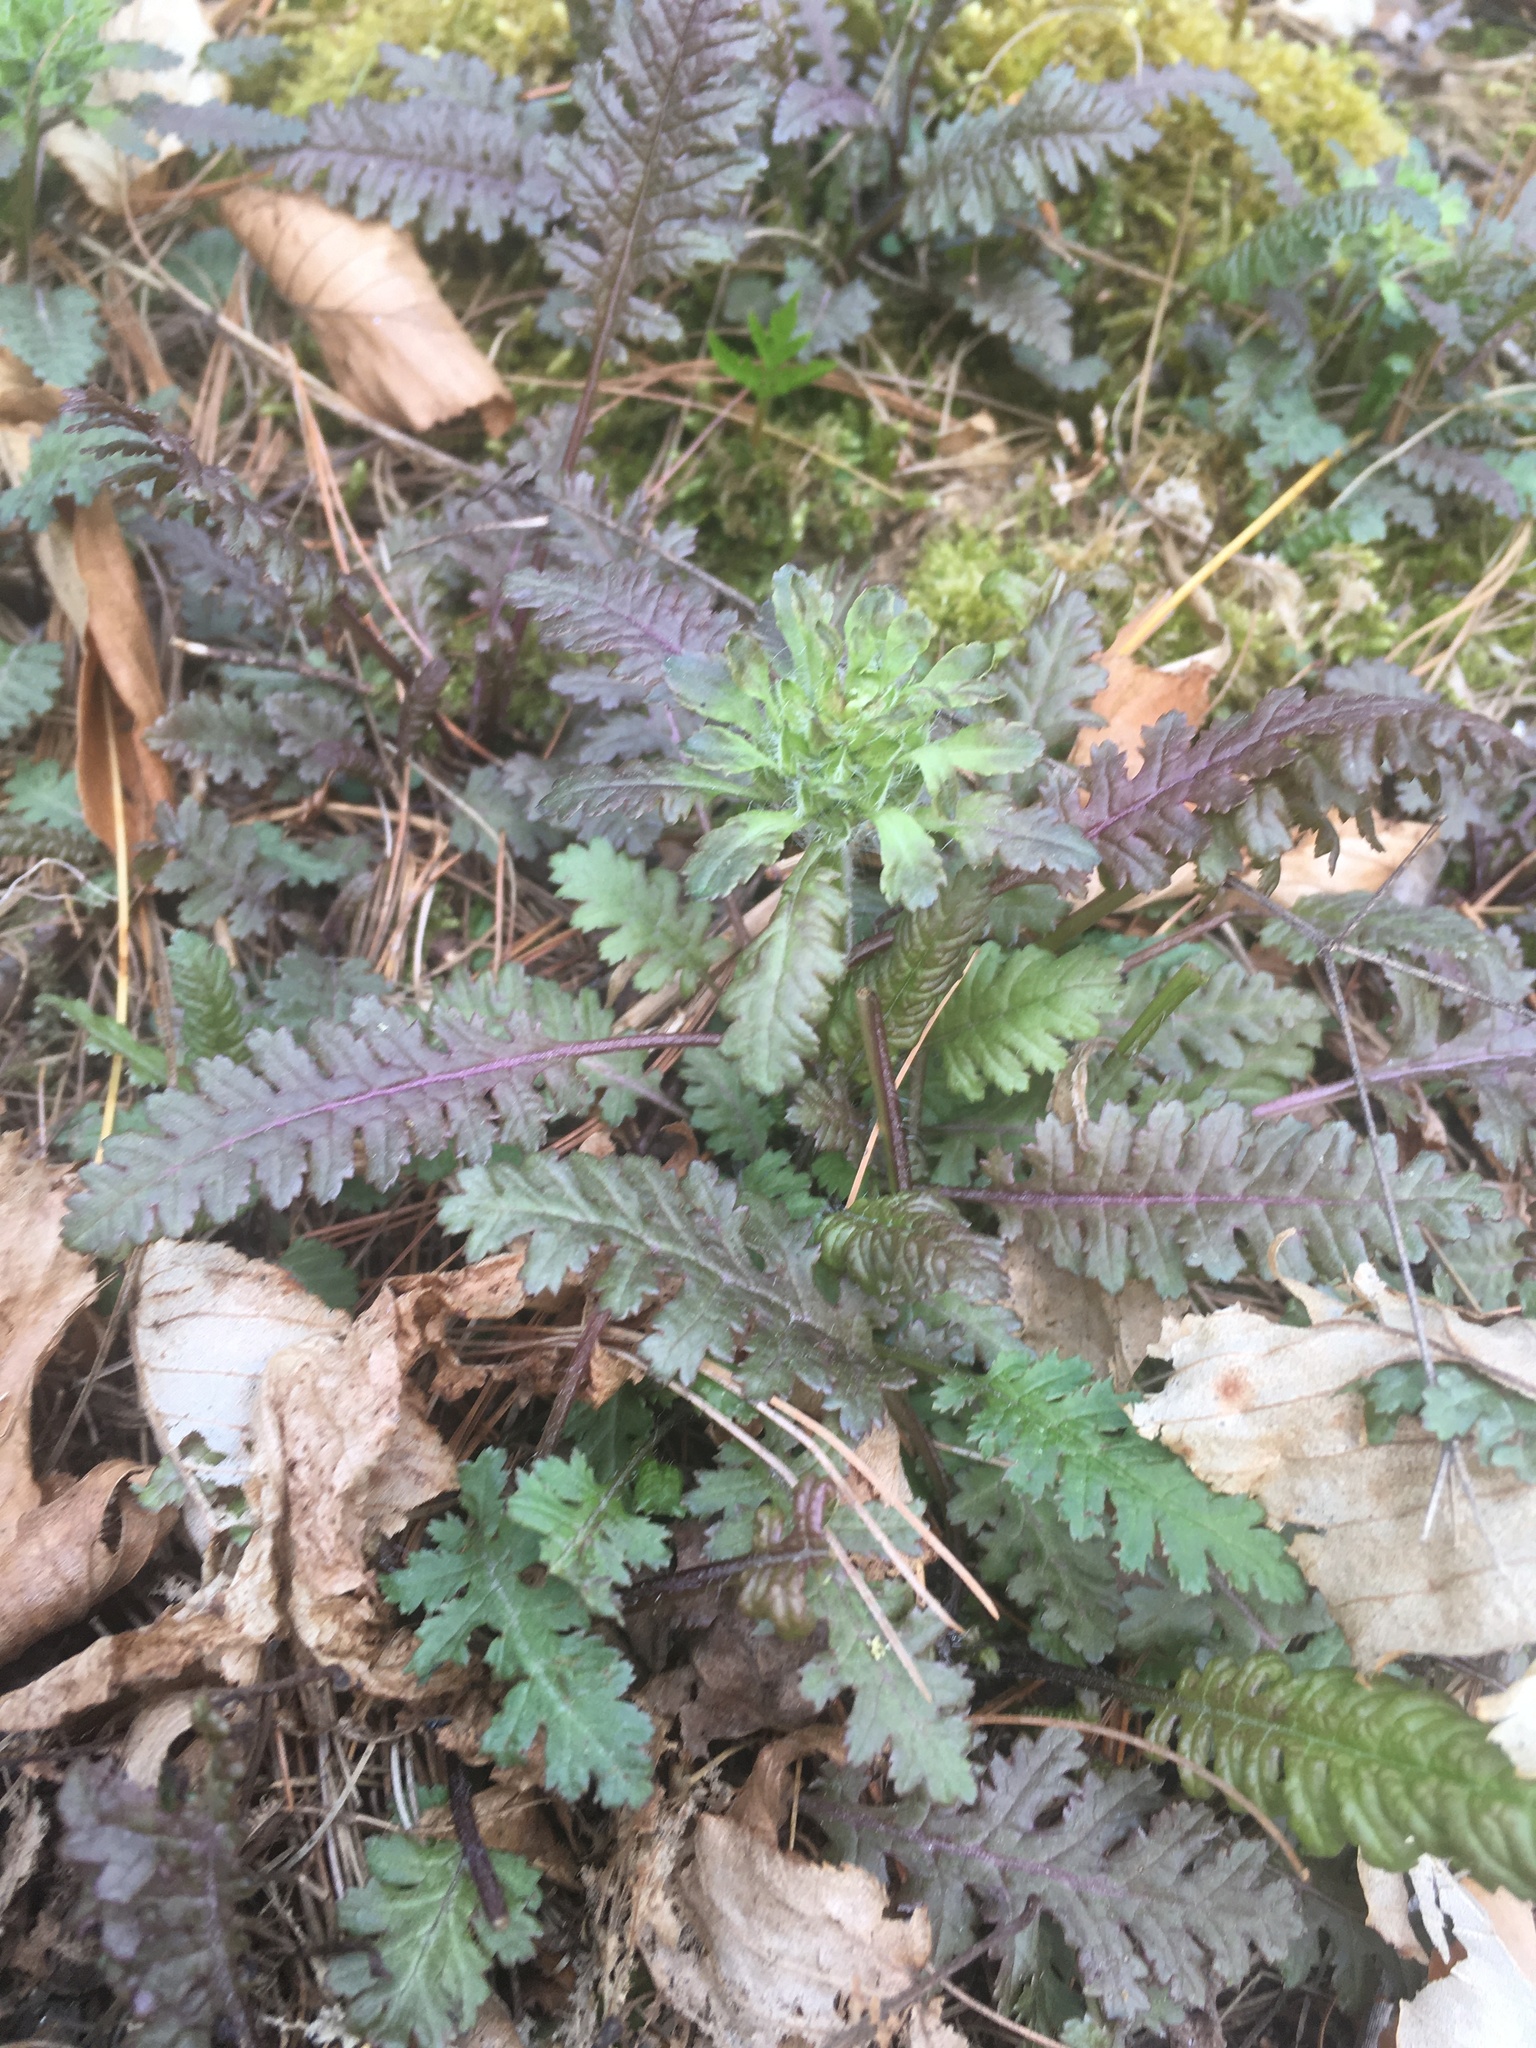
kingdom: Plantae
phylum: Tracheophyta
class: Magnoliopsida
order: Lamiales
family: Orobanchaceae
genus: Pedicularis
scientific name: Pedicularis canadensis
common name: Early lousewort
